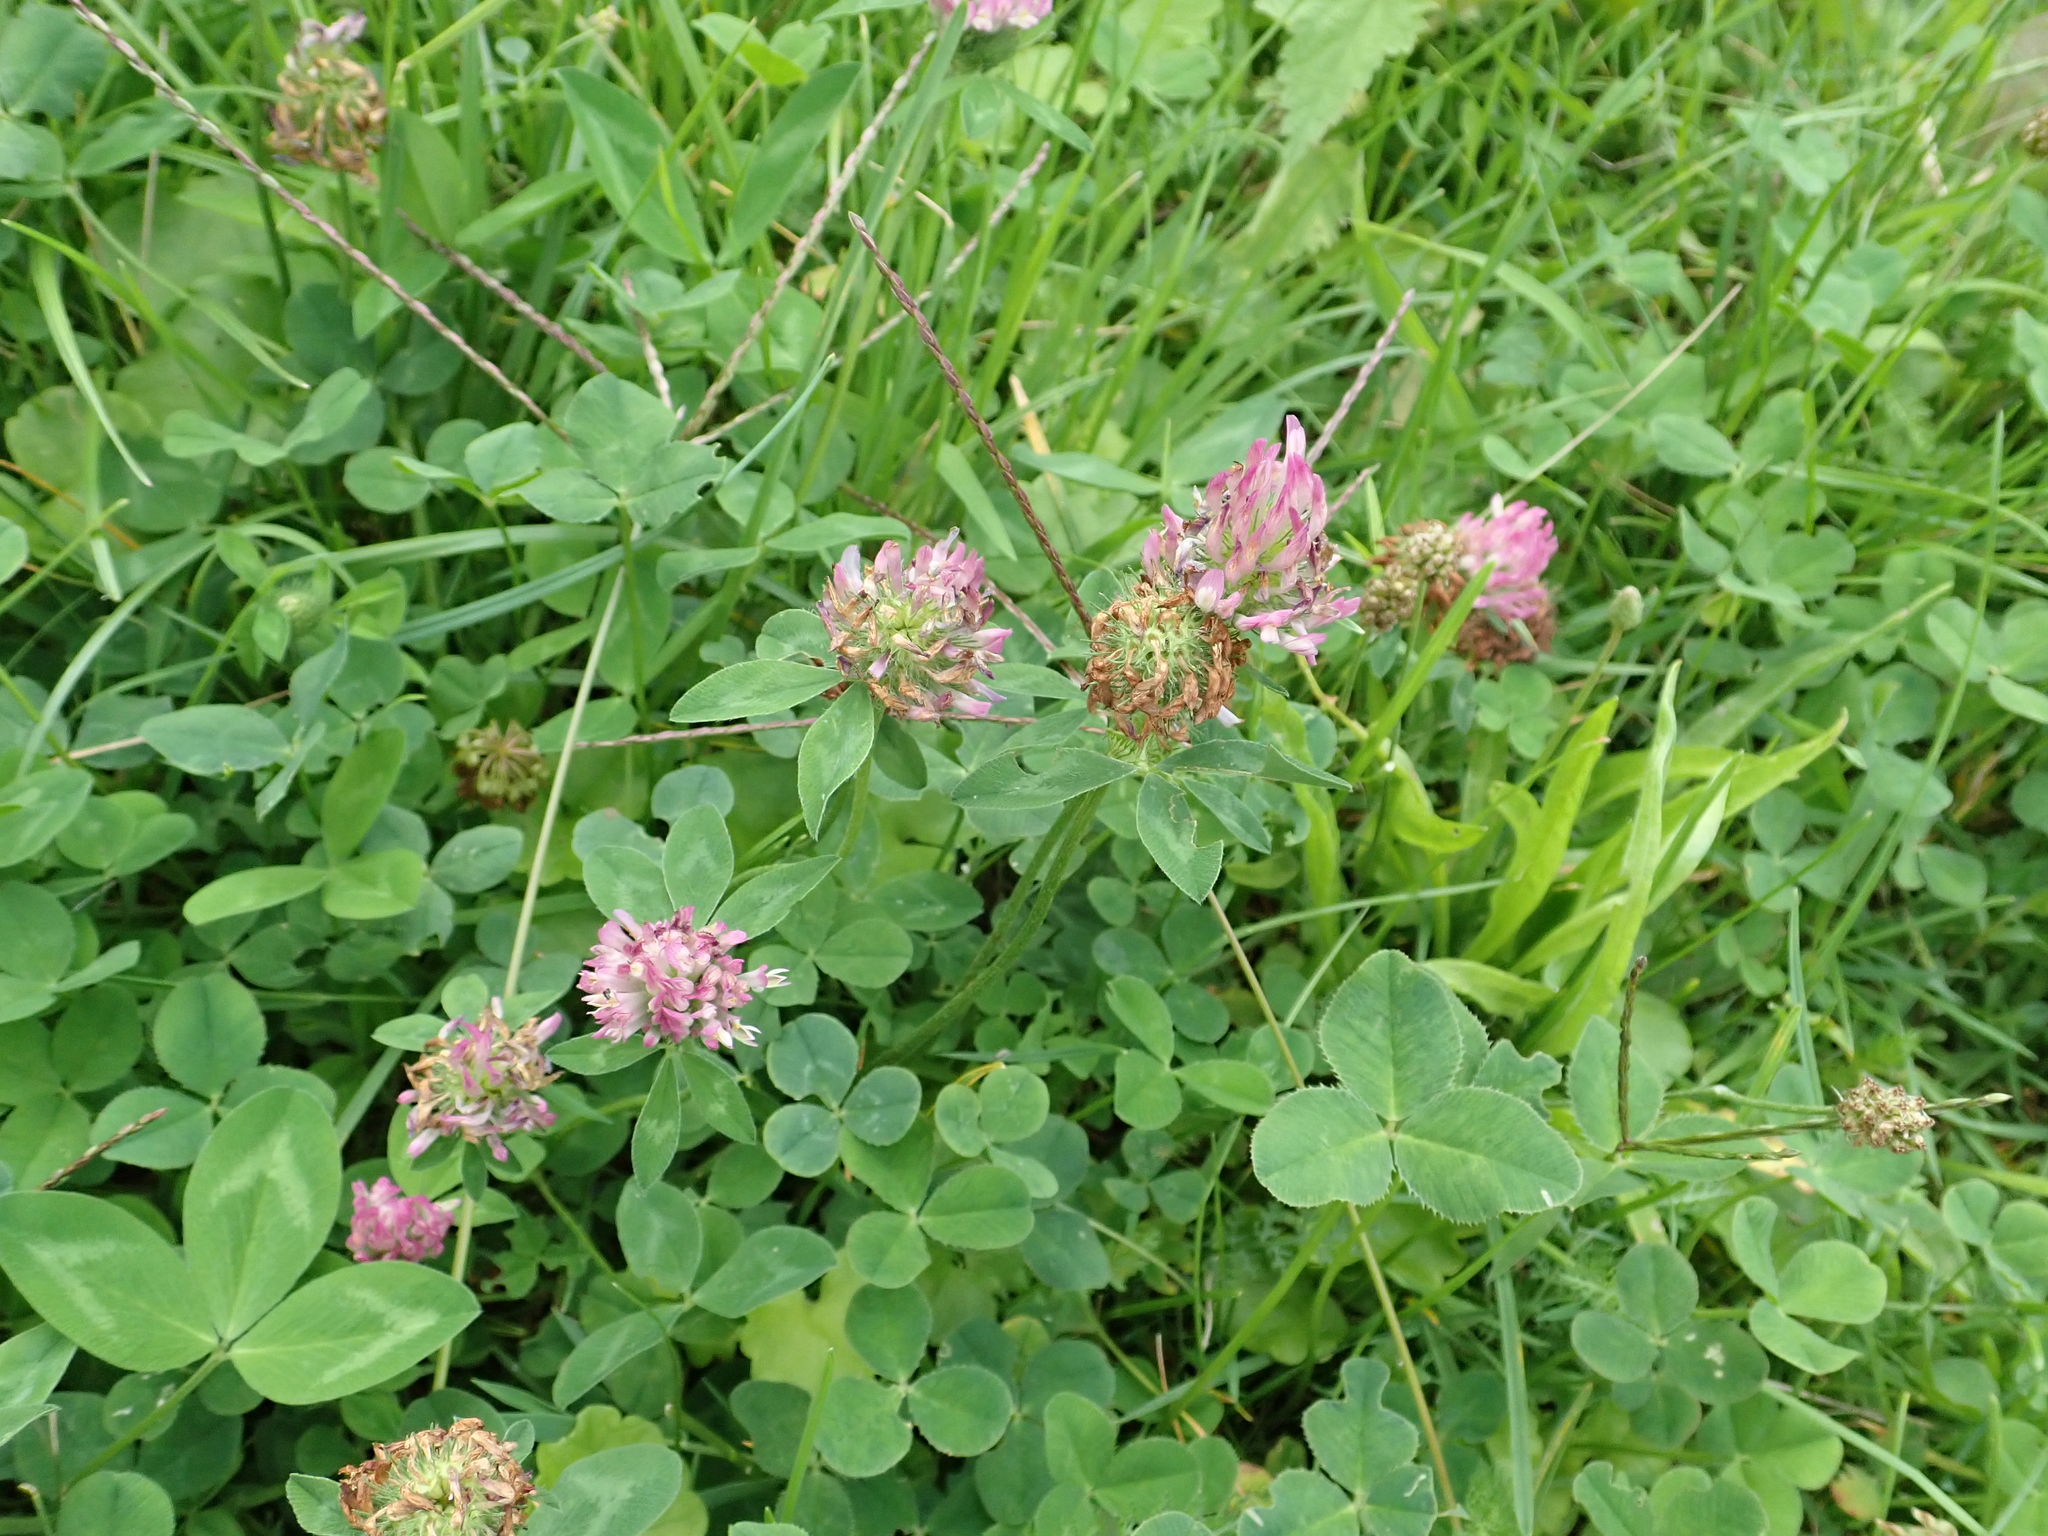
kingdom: Plantae
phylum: Tracheophyta
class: Magnoliopsida
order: Fabales
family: Fabaceae
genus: Trifolium
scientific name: Trifolium pratense
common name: Red clover
